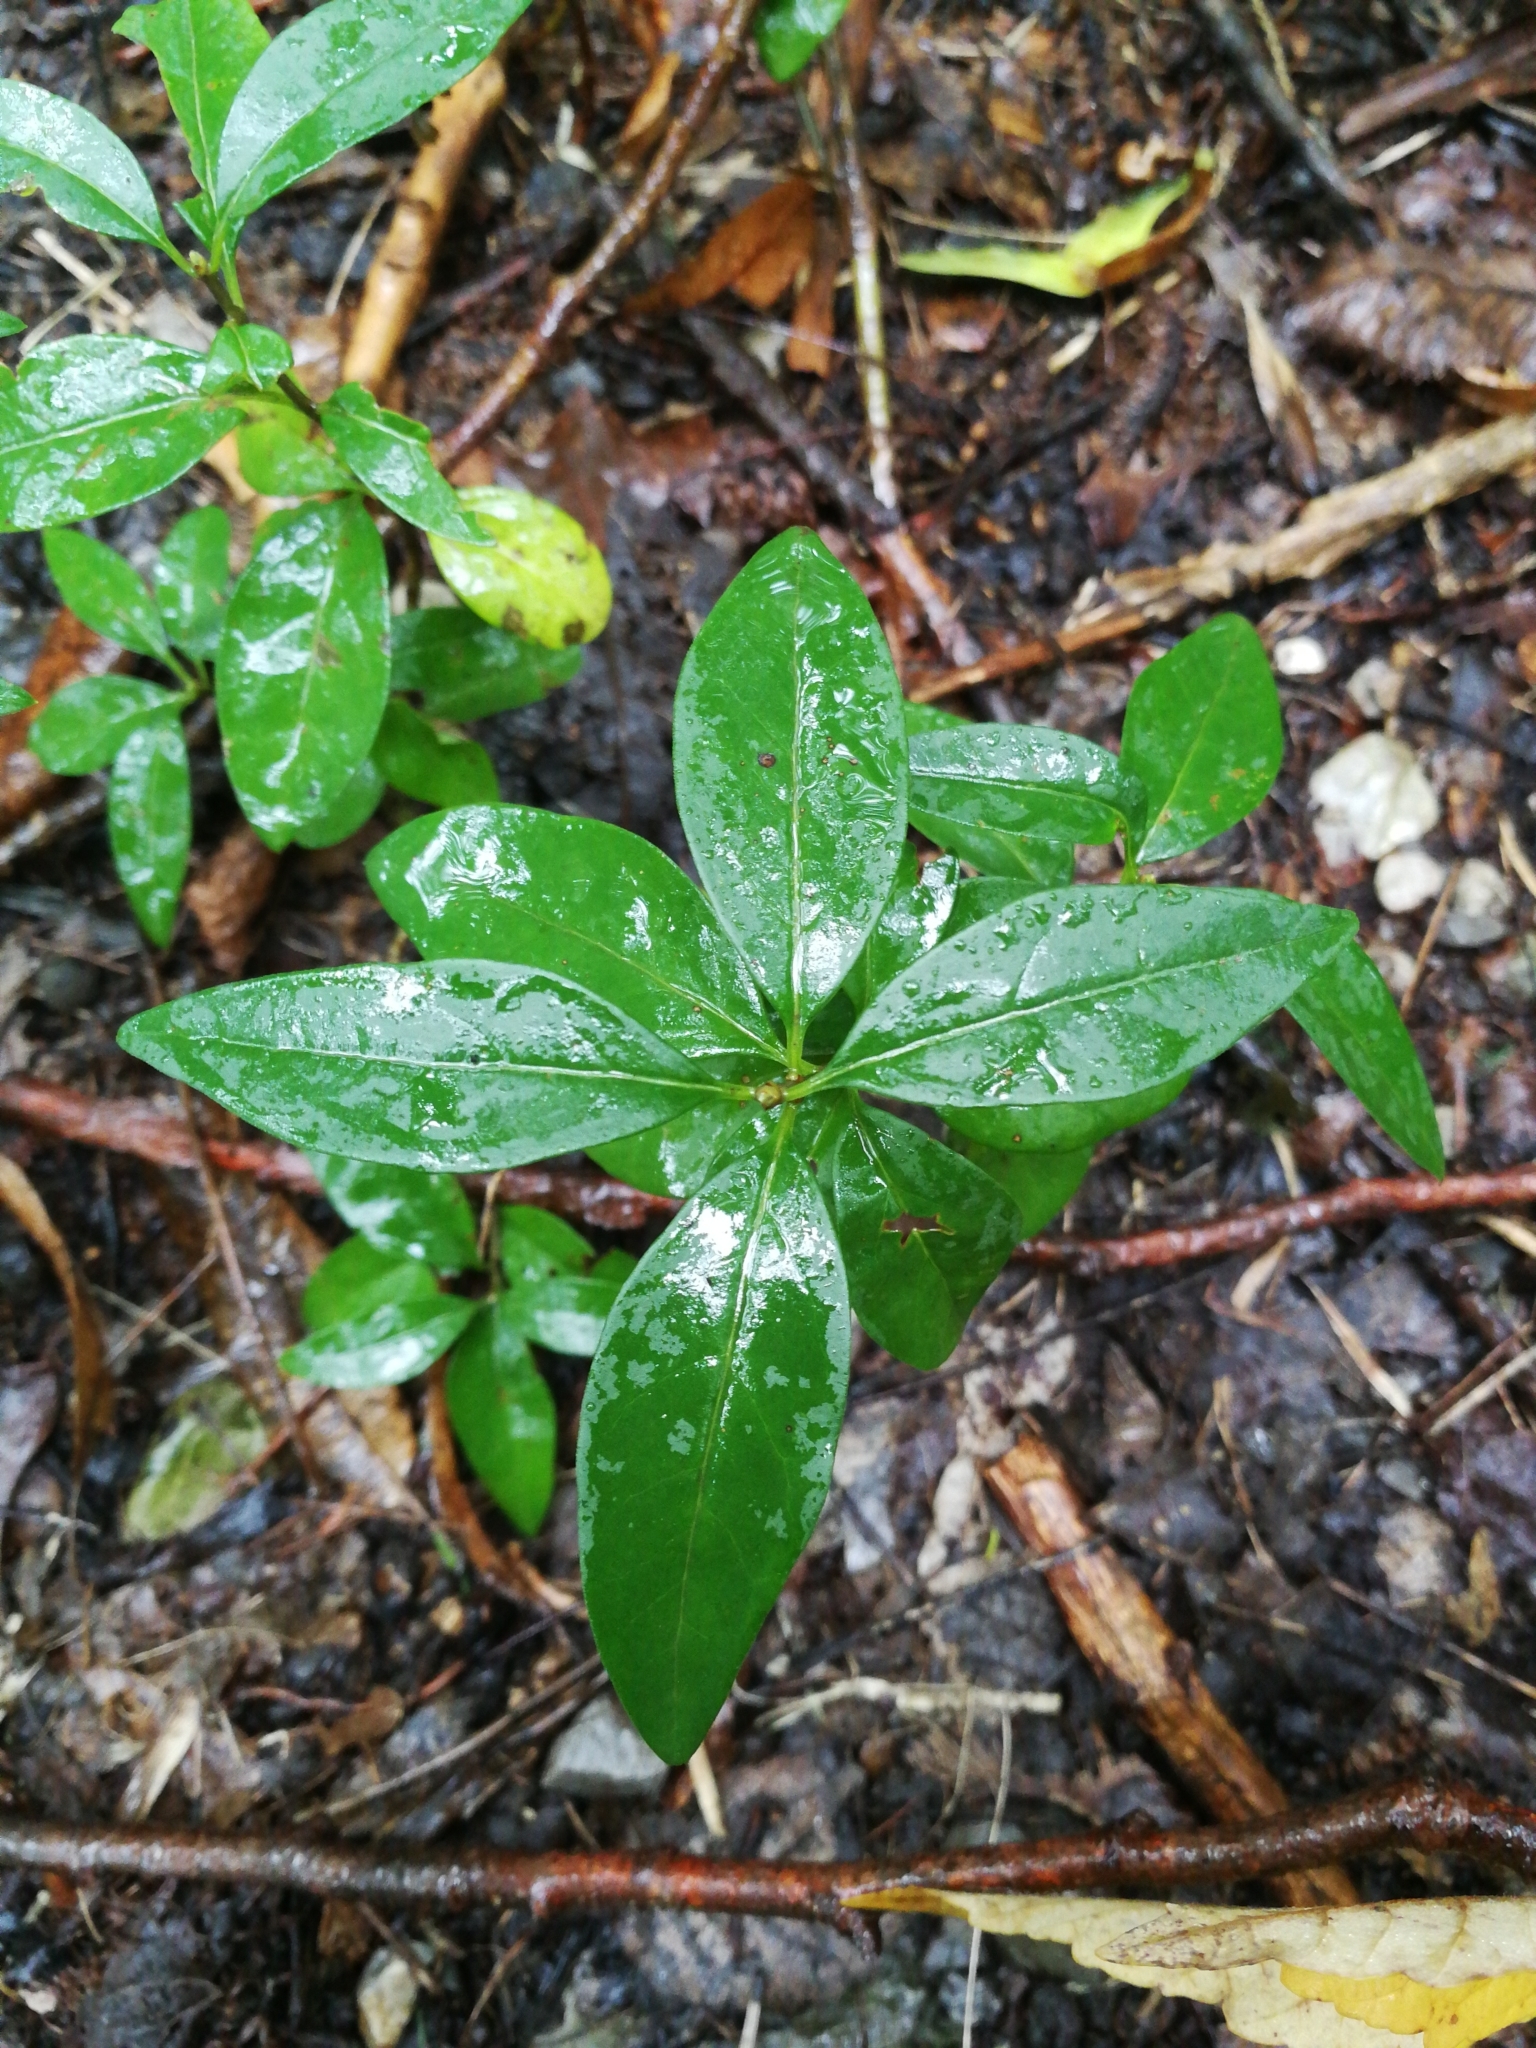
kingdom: Plantae
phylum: Tracheophyta
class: Magnoliopsida
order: Gentianales
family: Apocynaceae
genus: Vinca
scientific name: Vinca minor
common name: Lesser periwinkle
